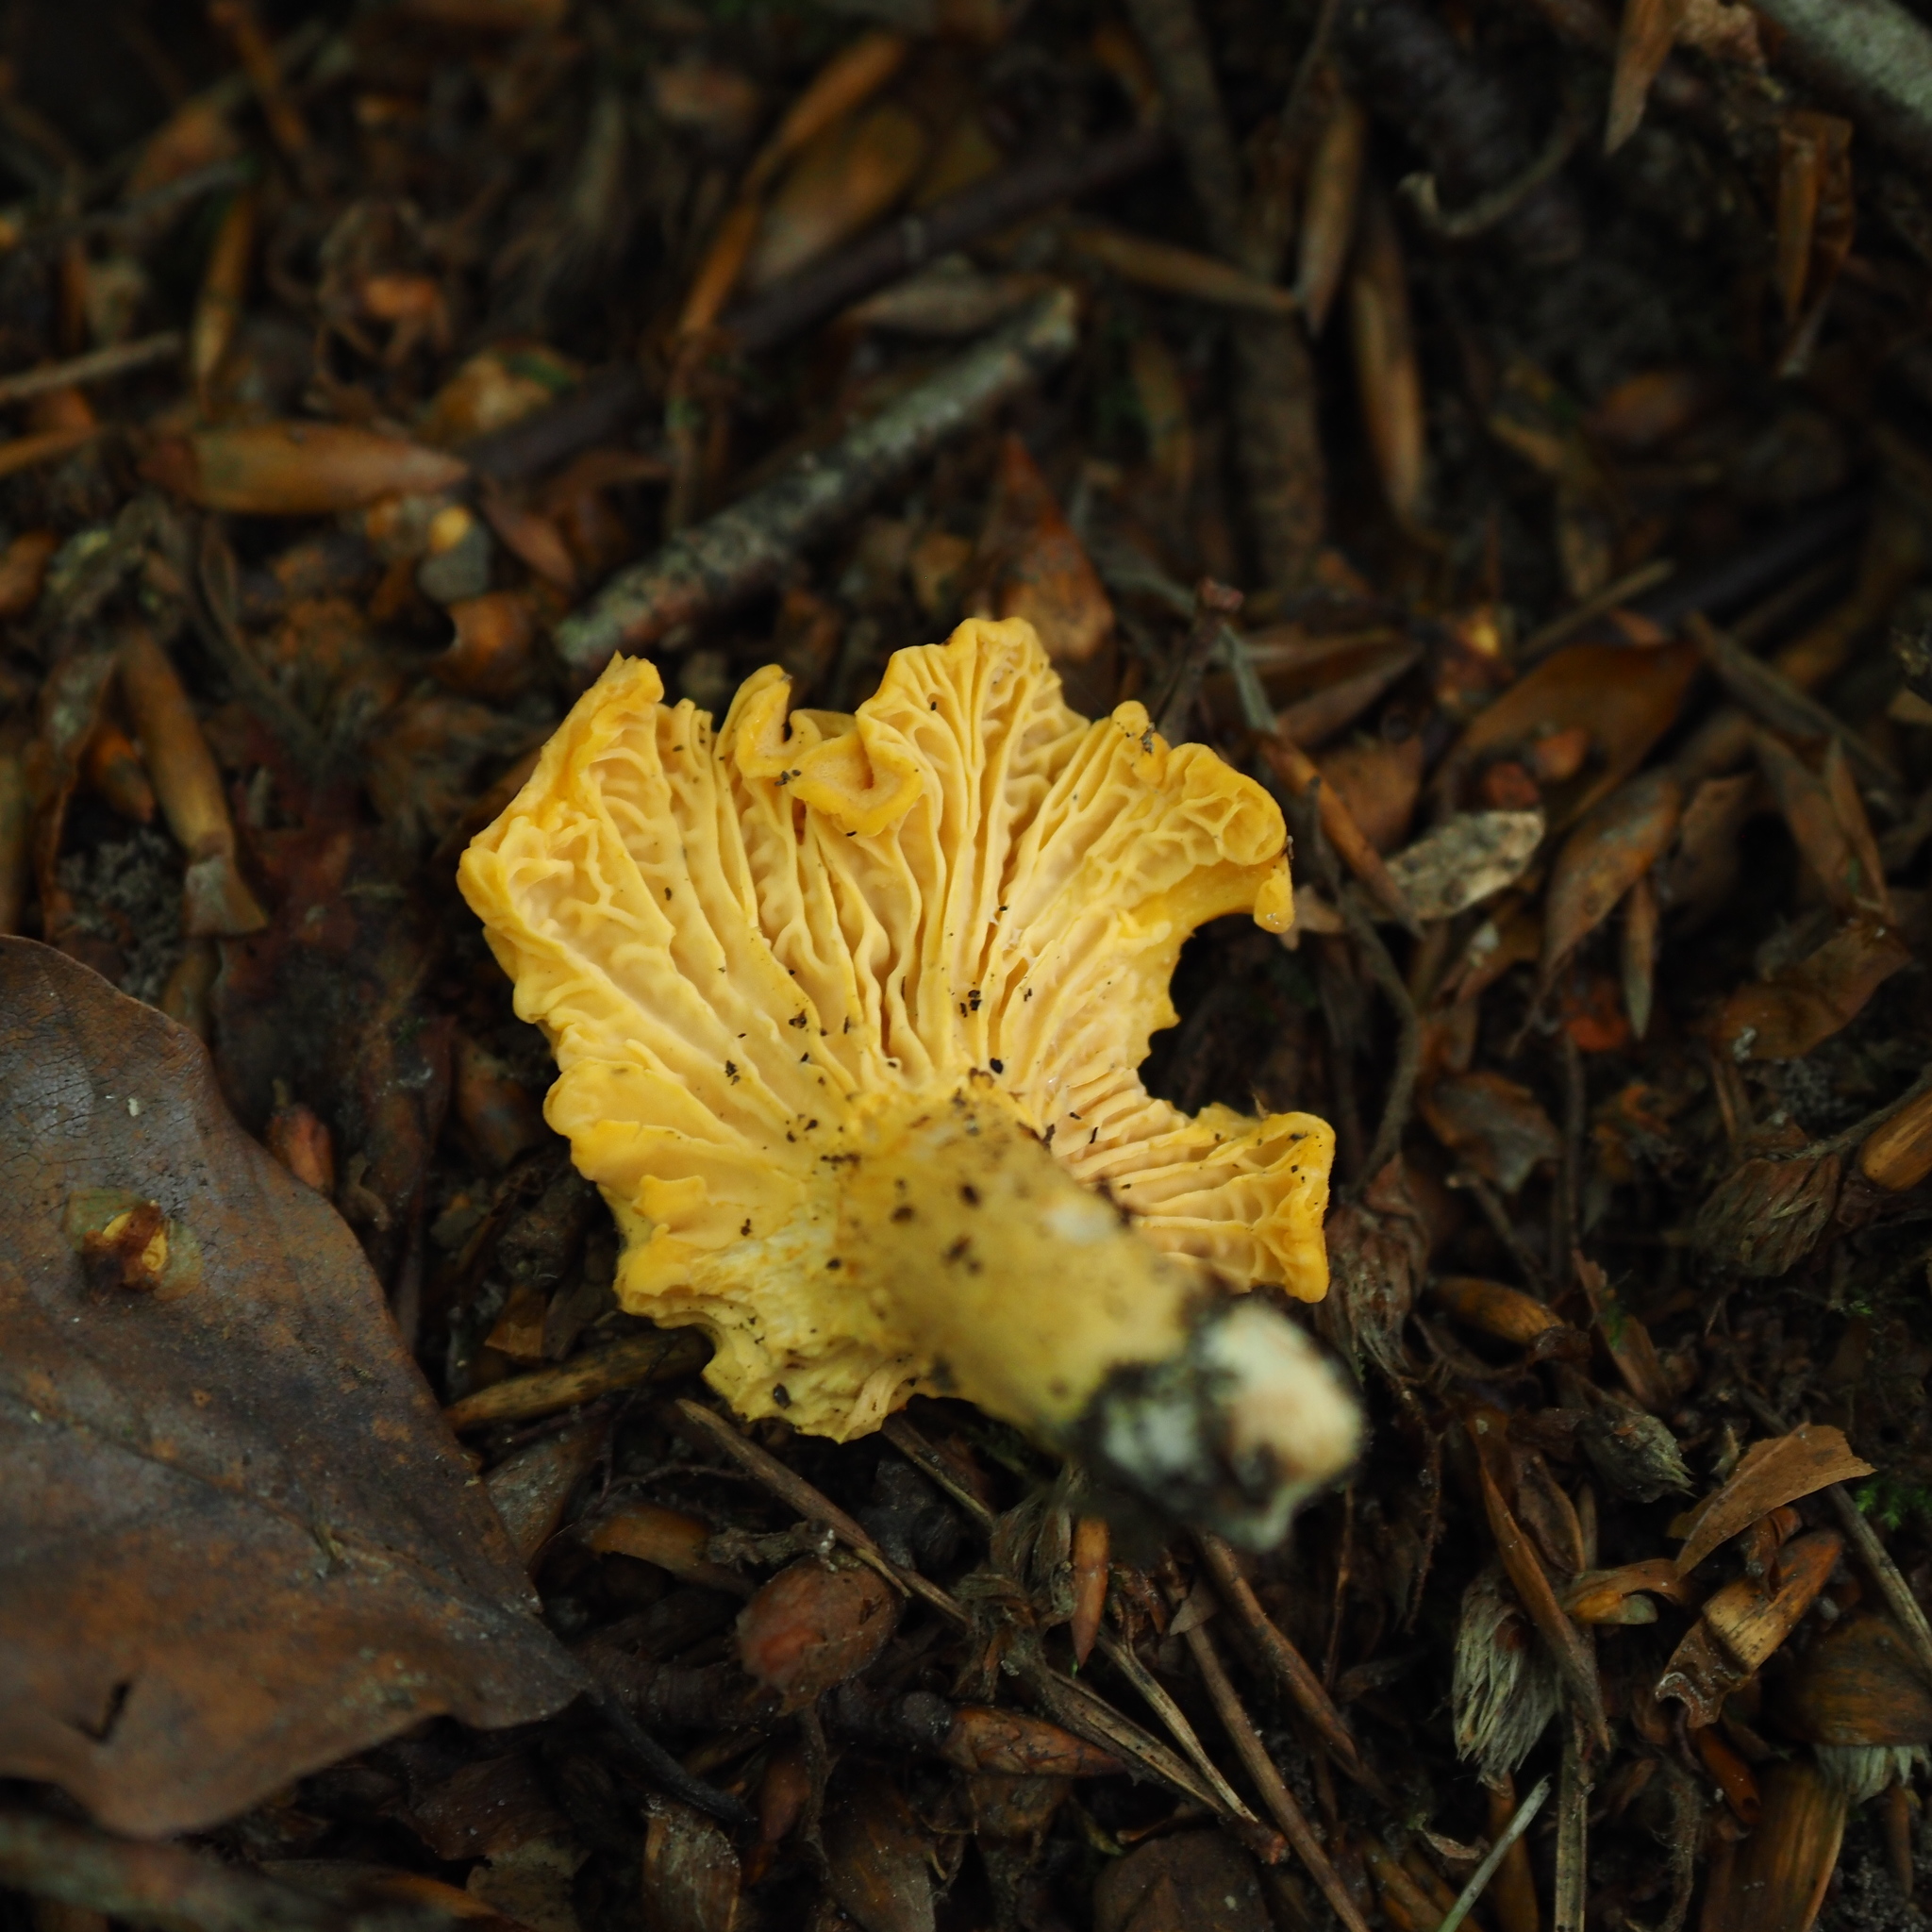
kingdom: Fungi
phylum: Basidiomycota
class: Agaricomycetes
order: Cantharellales
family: Hydnaceae
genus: Cantharellus
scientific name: Cantharellus cibarius
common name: Chanterelle
